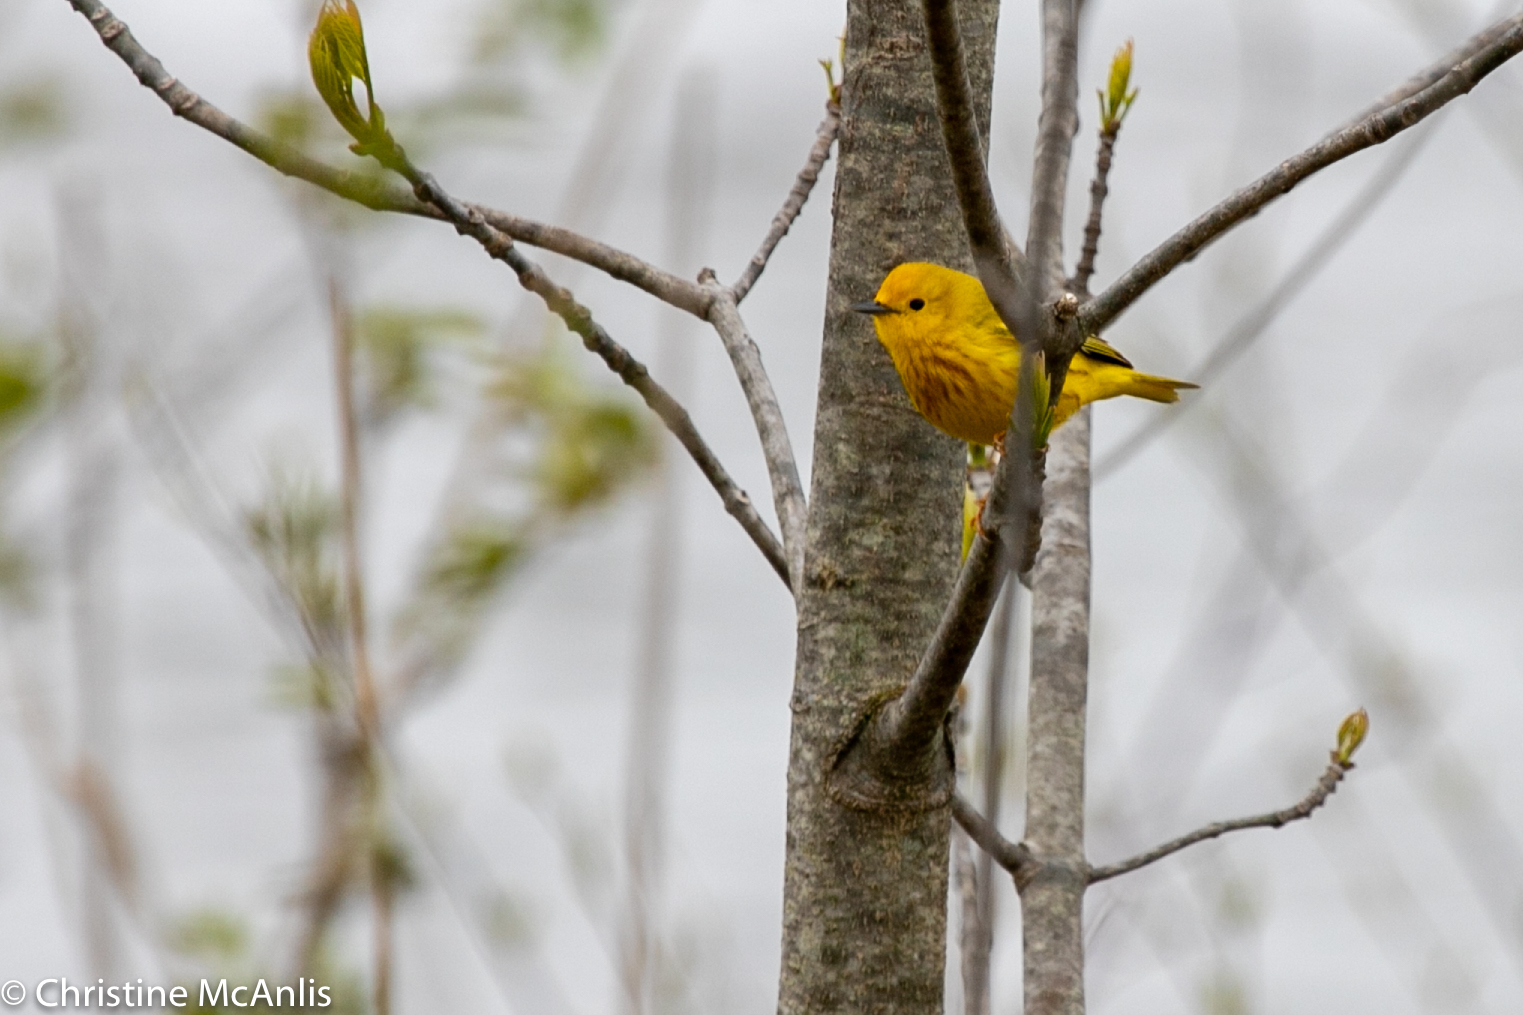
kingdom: Animalia
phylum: Chordata
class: Aves
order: Passeriformes
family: Parulidae
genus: Setophaga
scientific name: Setophaga petechia
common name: Yellow warbler
